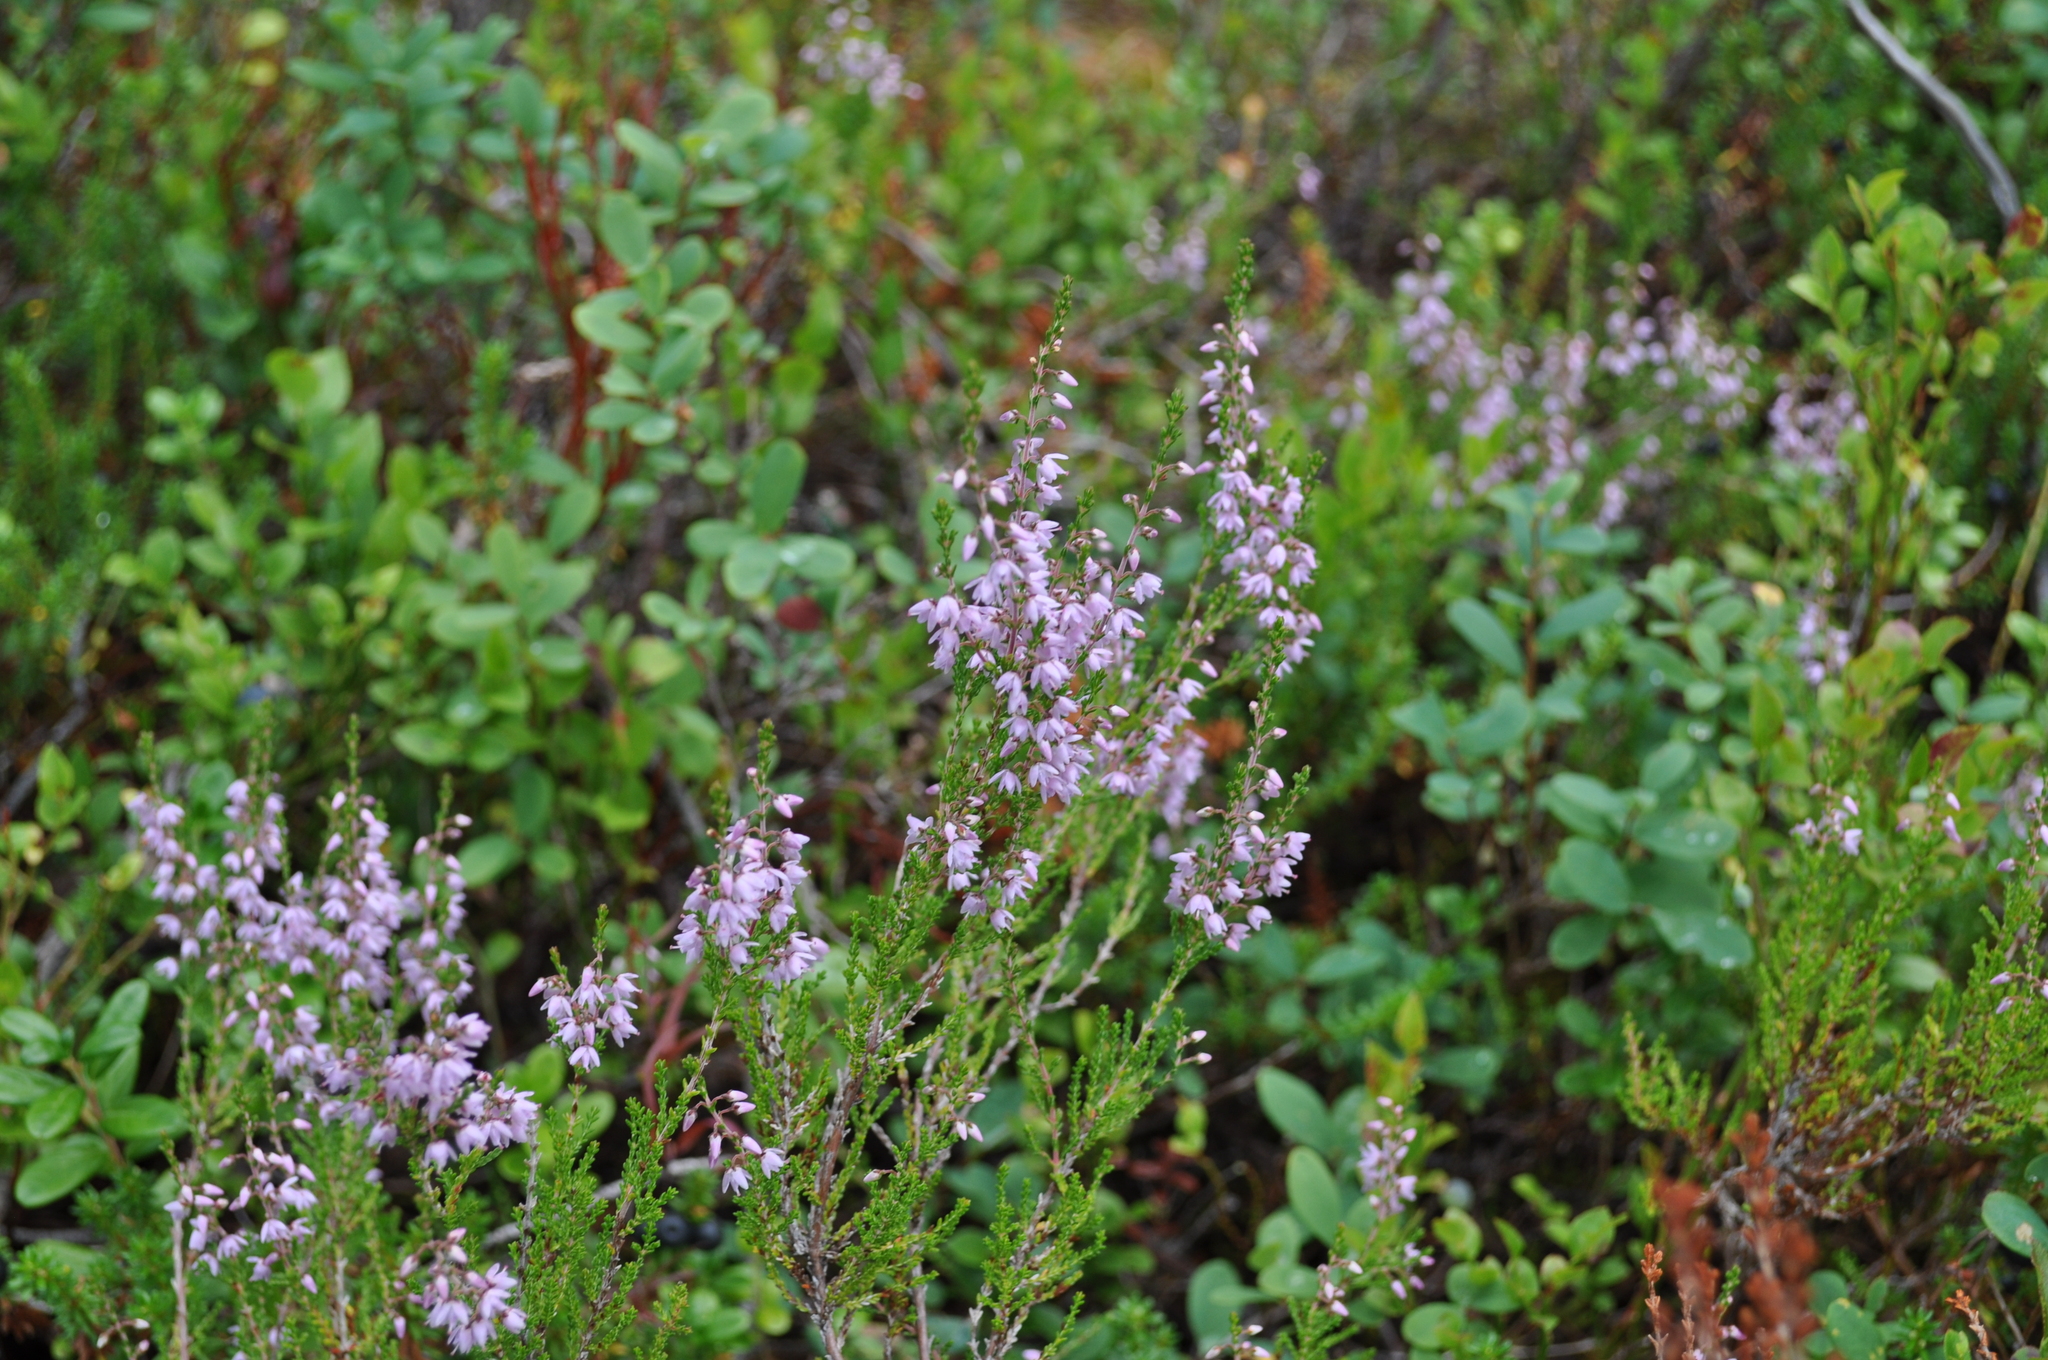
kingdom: Plantae
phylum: Tracheophyta
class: Magnoliopsida
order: Ericales
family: Ericaceae
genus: Calluna
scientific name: Calluna vulgaris
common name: Heather
